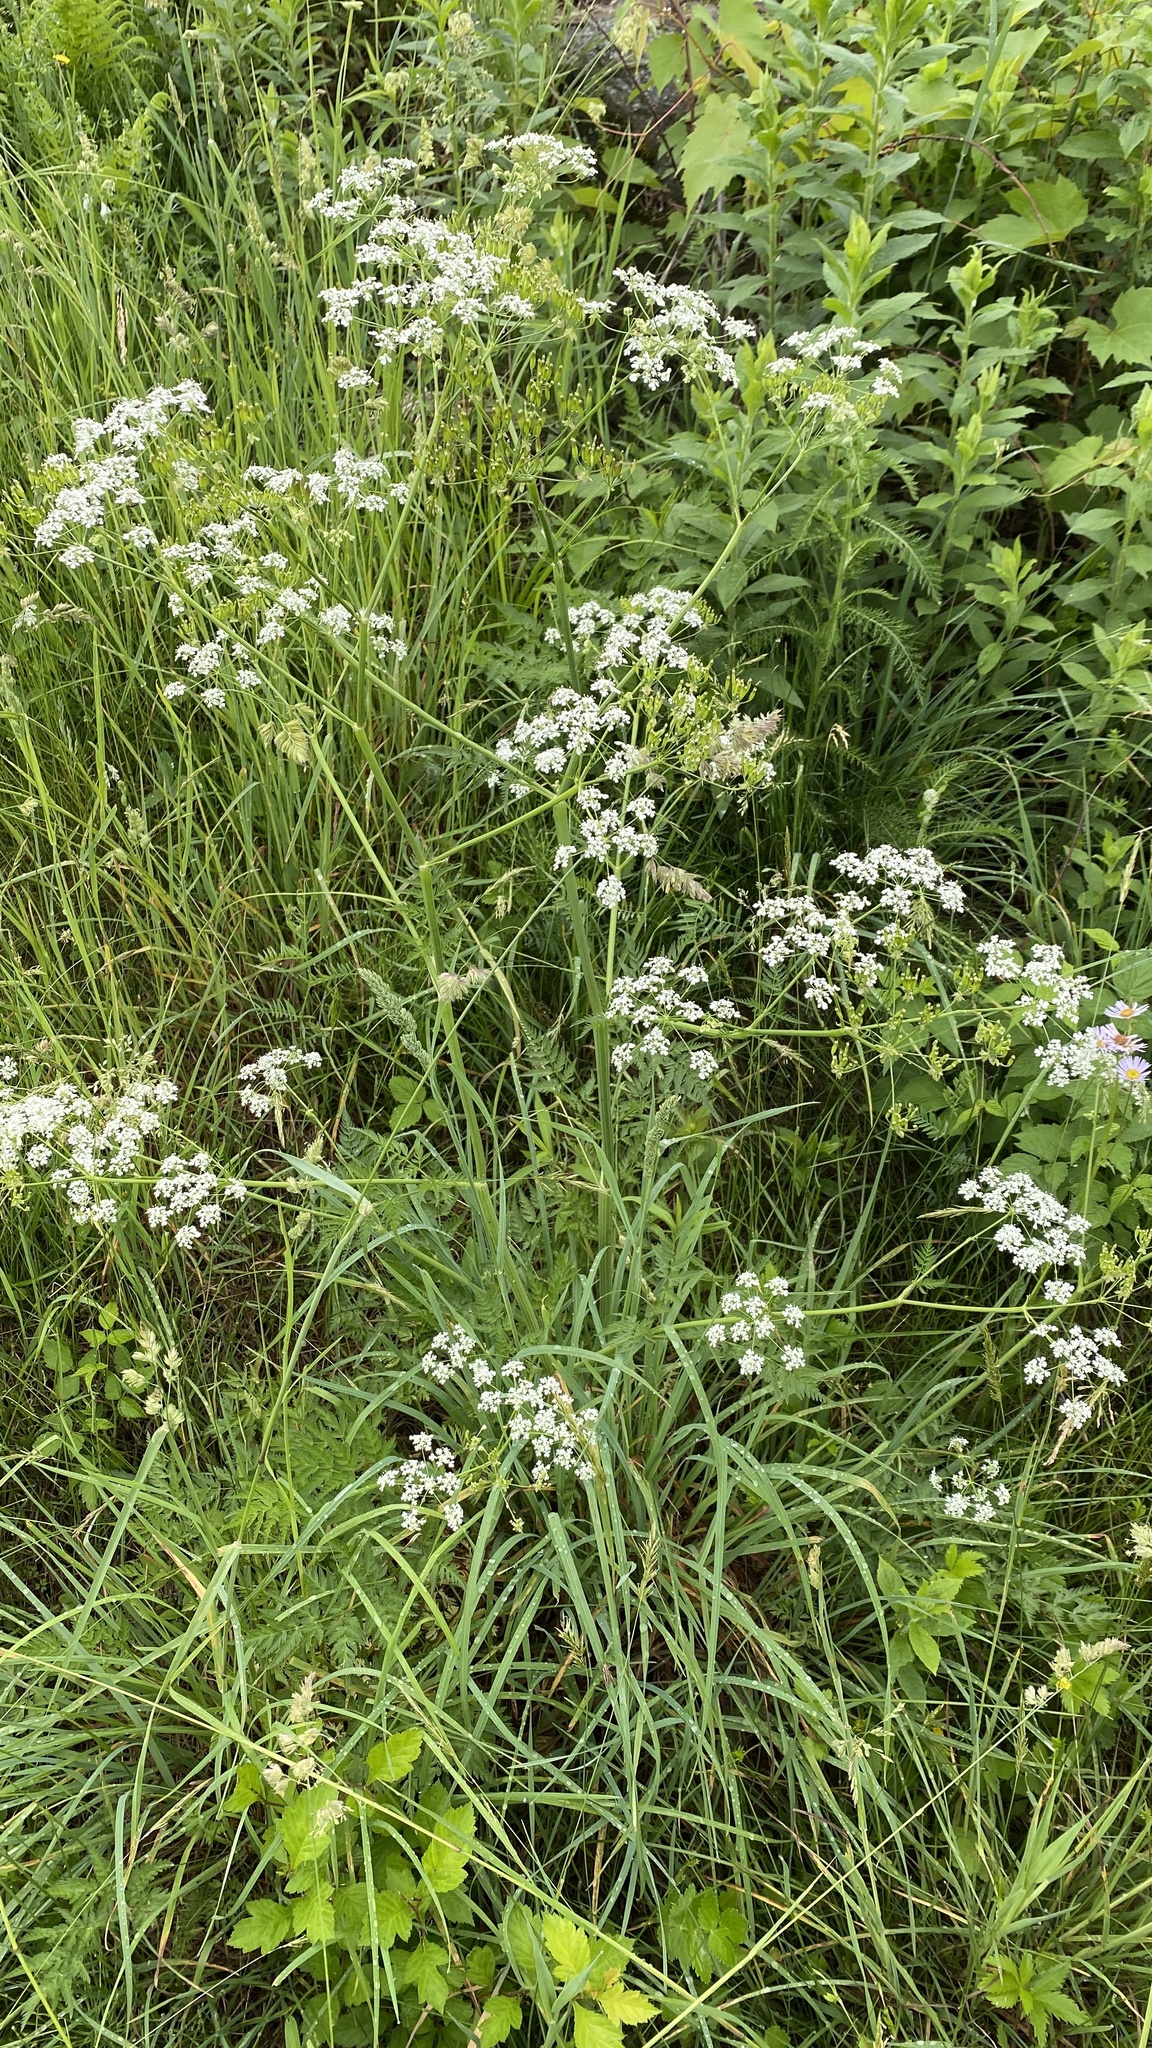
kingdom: Plantae
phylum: Tracheophyta
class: Magnoliopsida
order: Apiales
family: Apiaceae
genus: Anthriscus
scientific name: Anthriscus sylvestris
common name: Cow parsley
